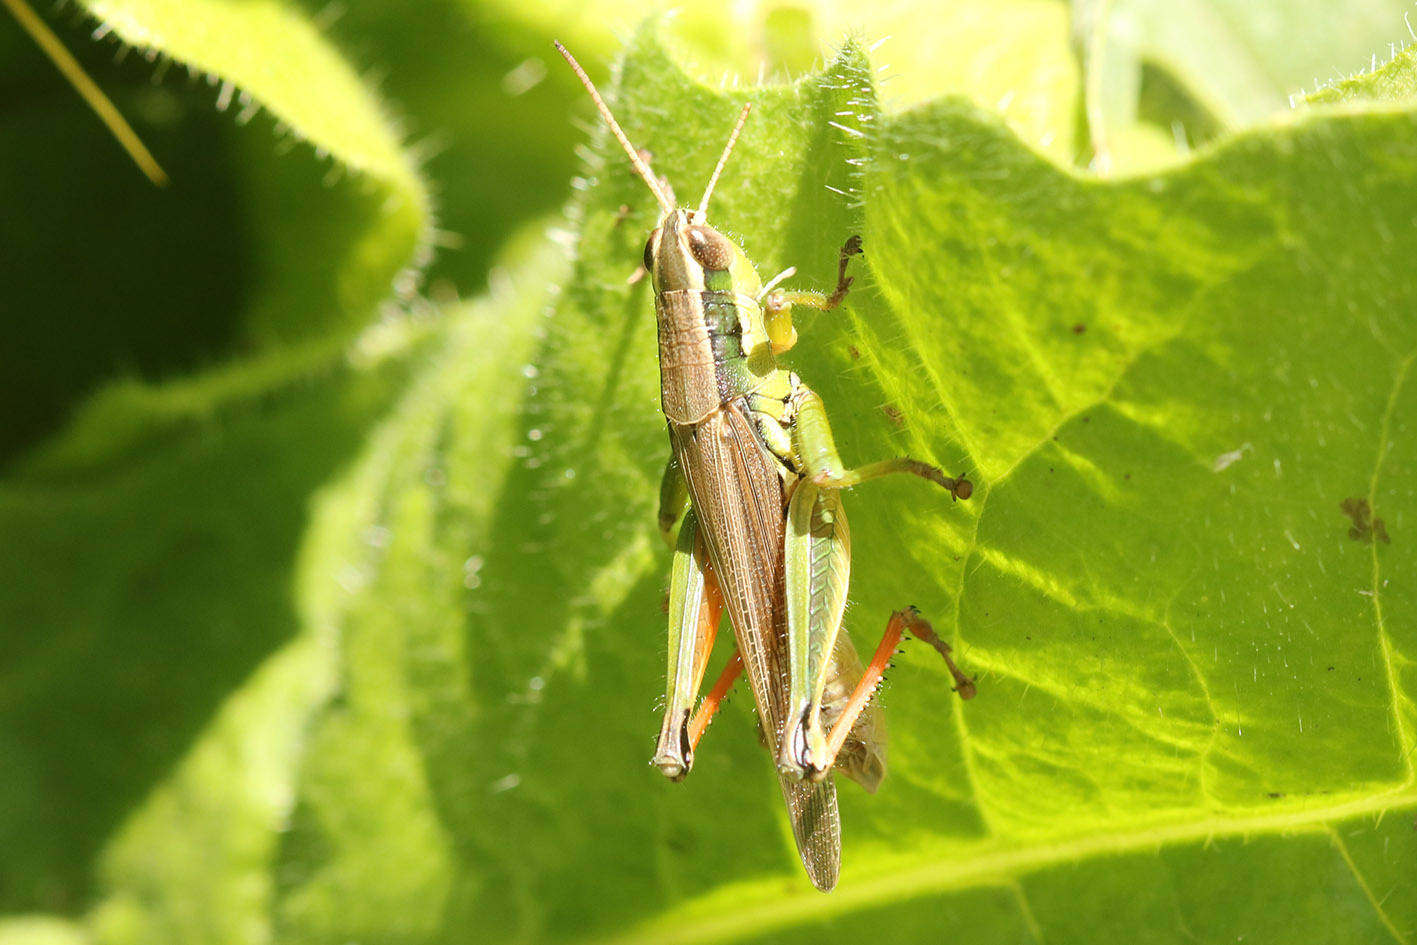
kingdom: Animalia
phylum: Arthropoda
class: Insecta
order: Orthoptera
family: Acrididae
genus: Scotussa
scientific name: Scotussa cliens
